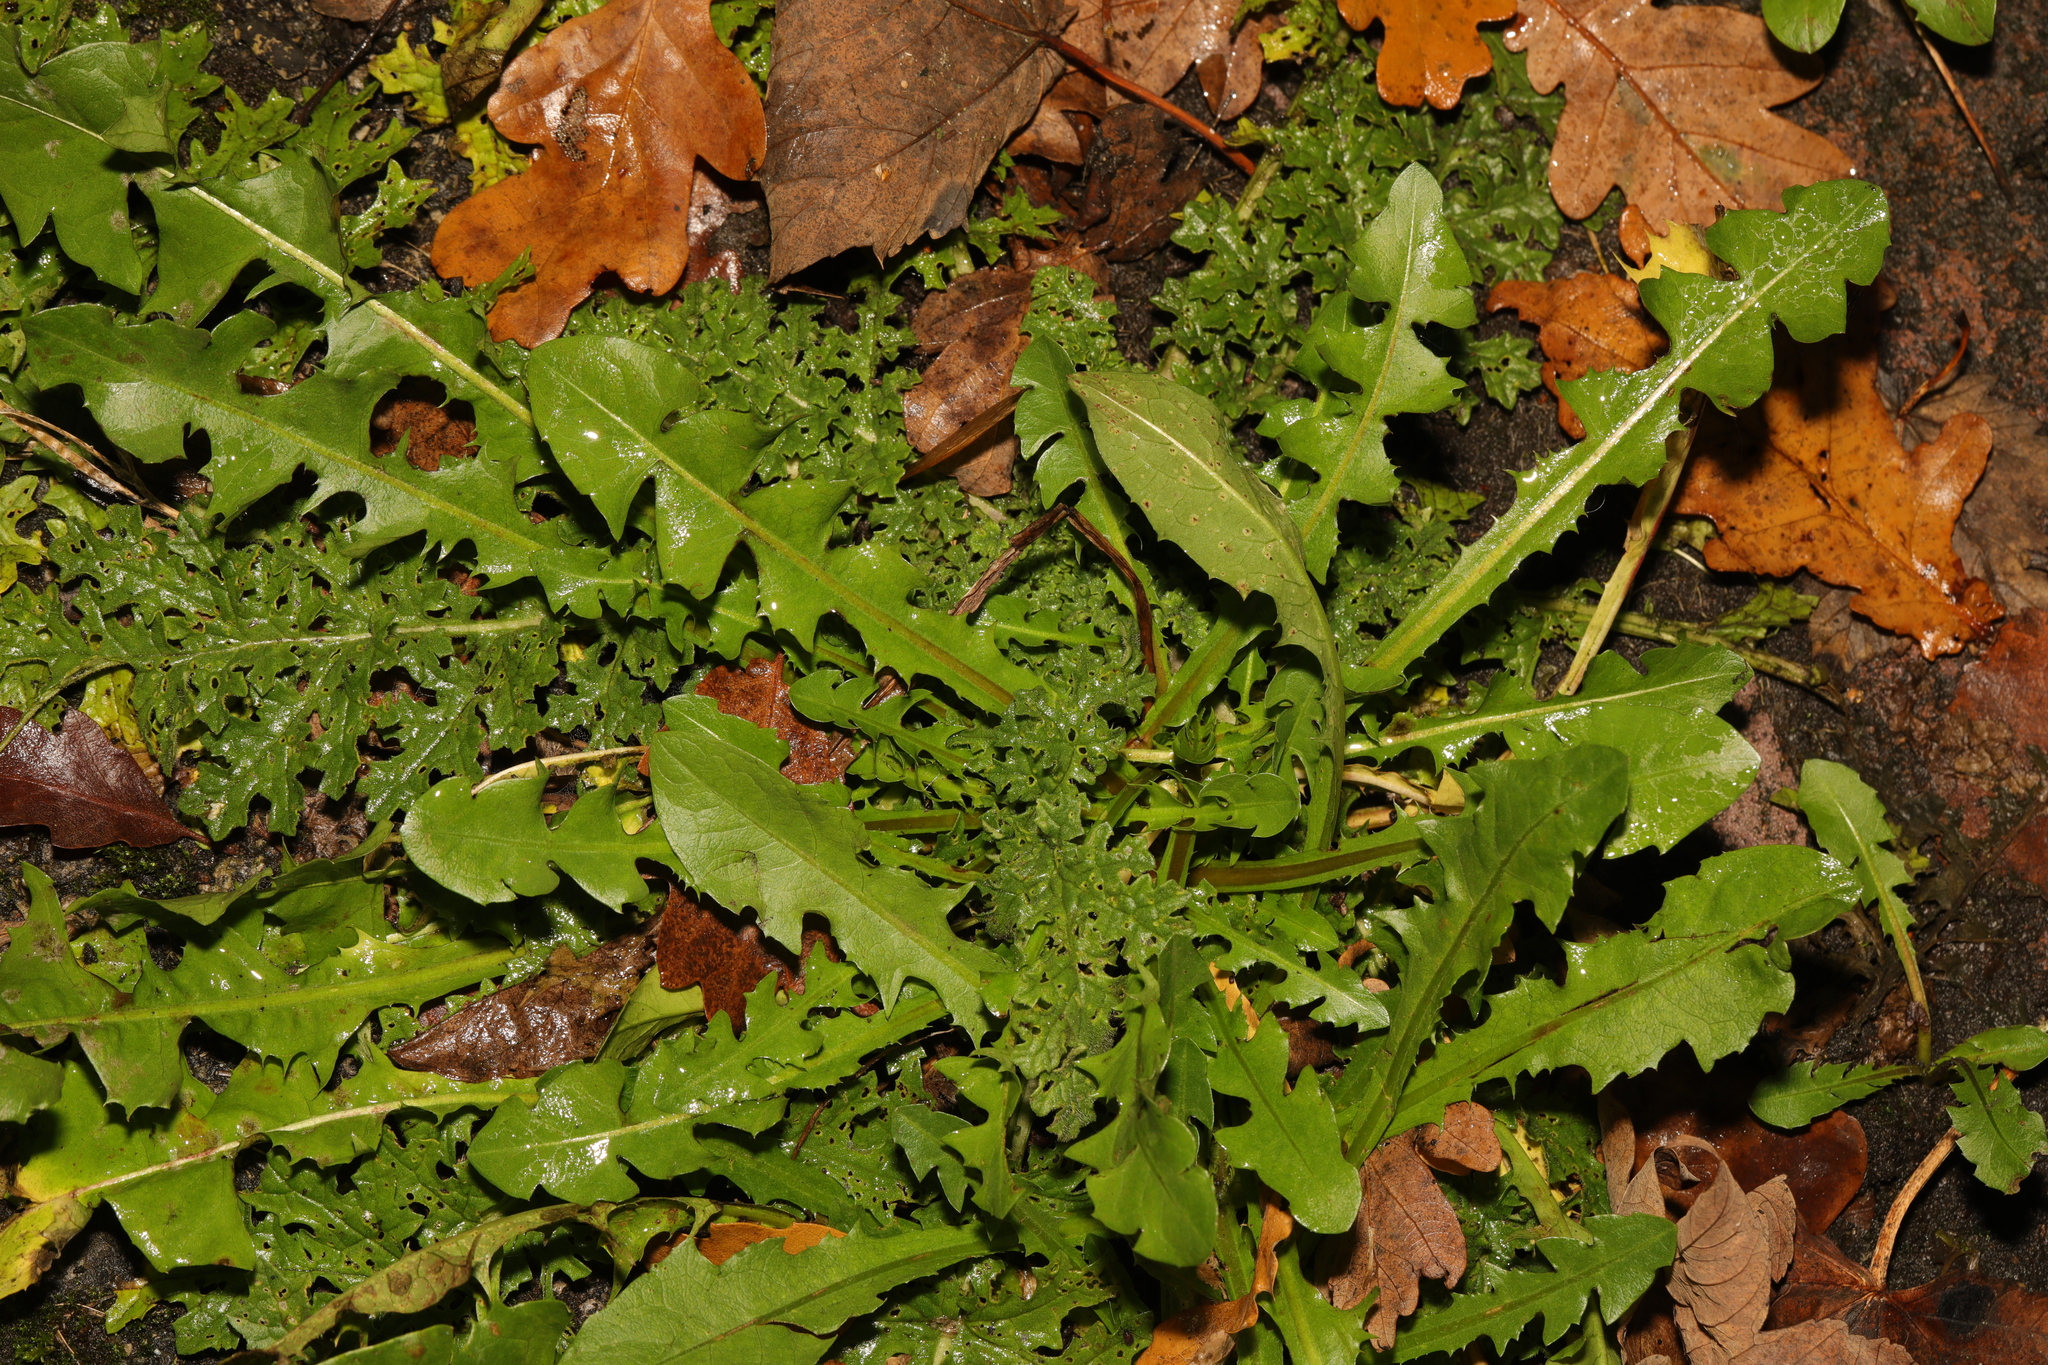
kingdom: Plantae
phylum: Tracheophyta
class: Magnoliopsida
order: Asterales
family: Asteraceae
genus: Taraxacum
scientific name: Taraxacum officinale
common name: Common dandelion
